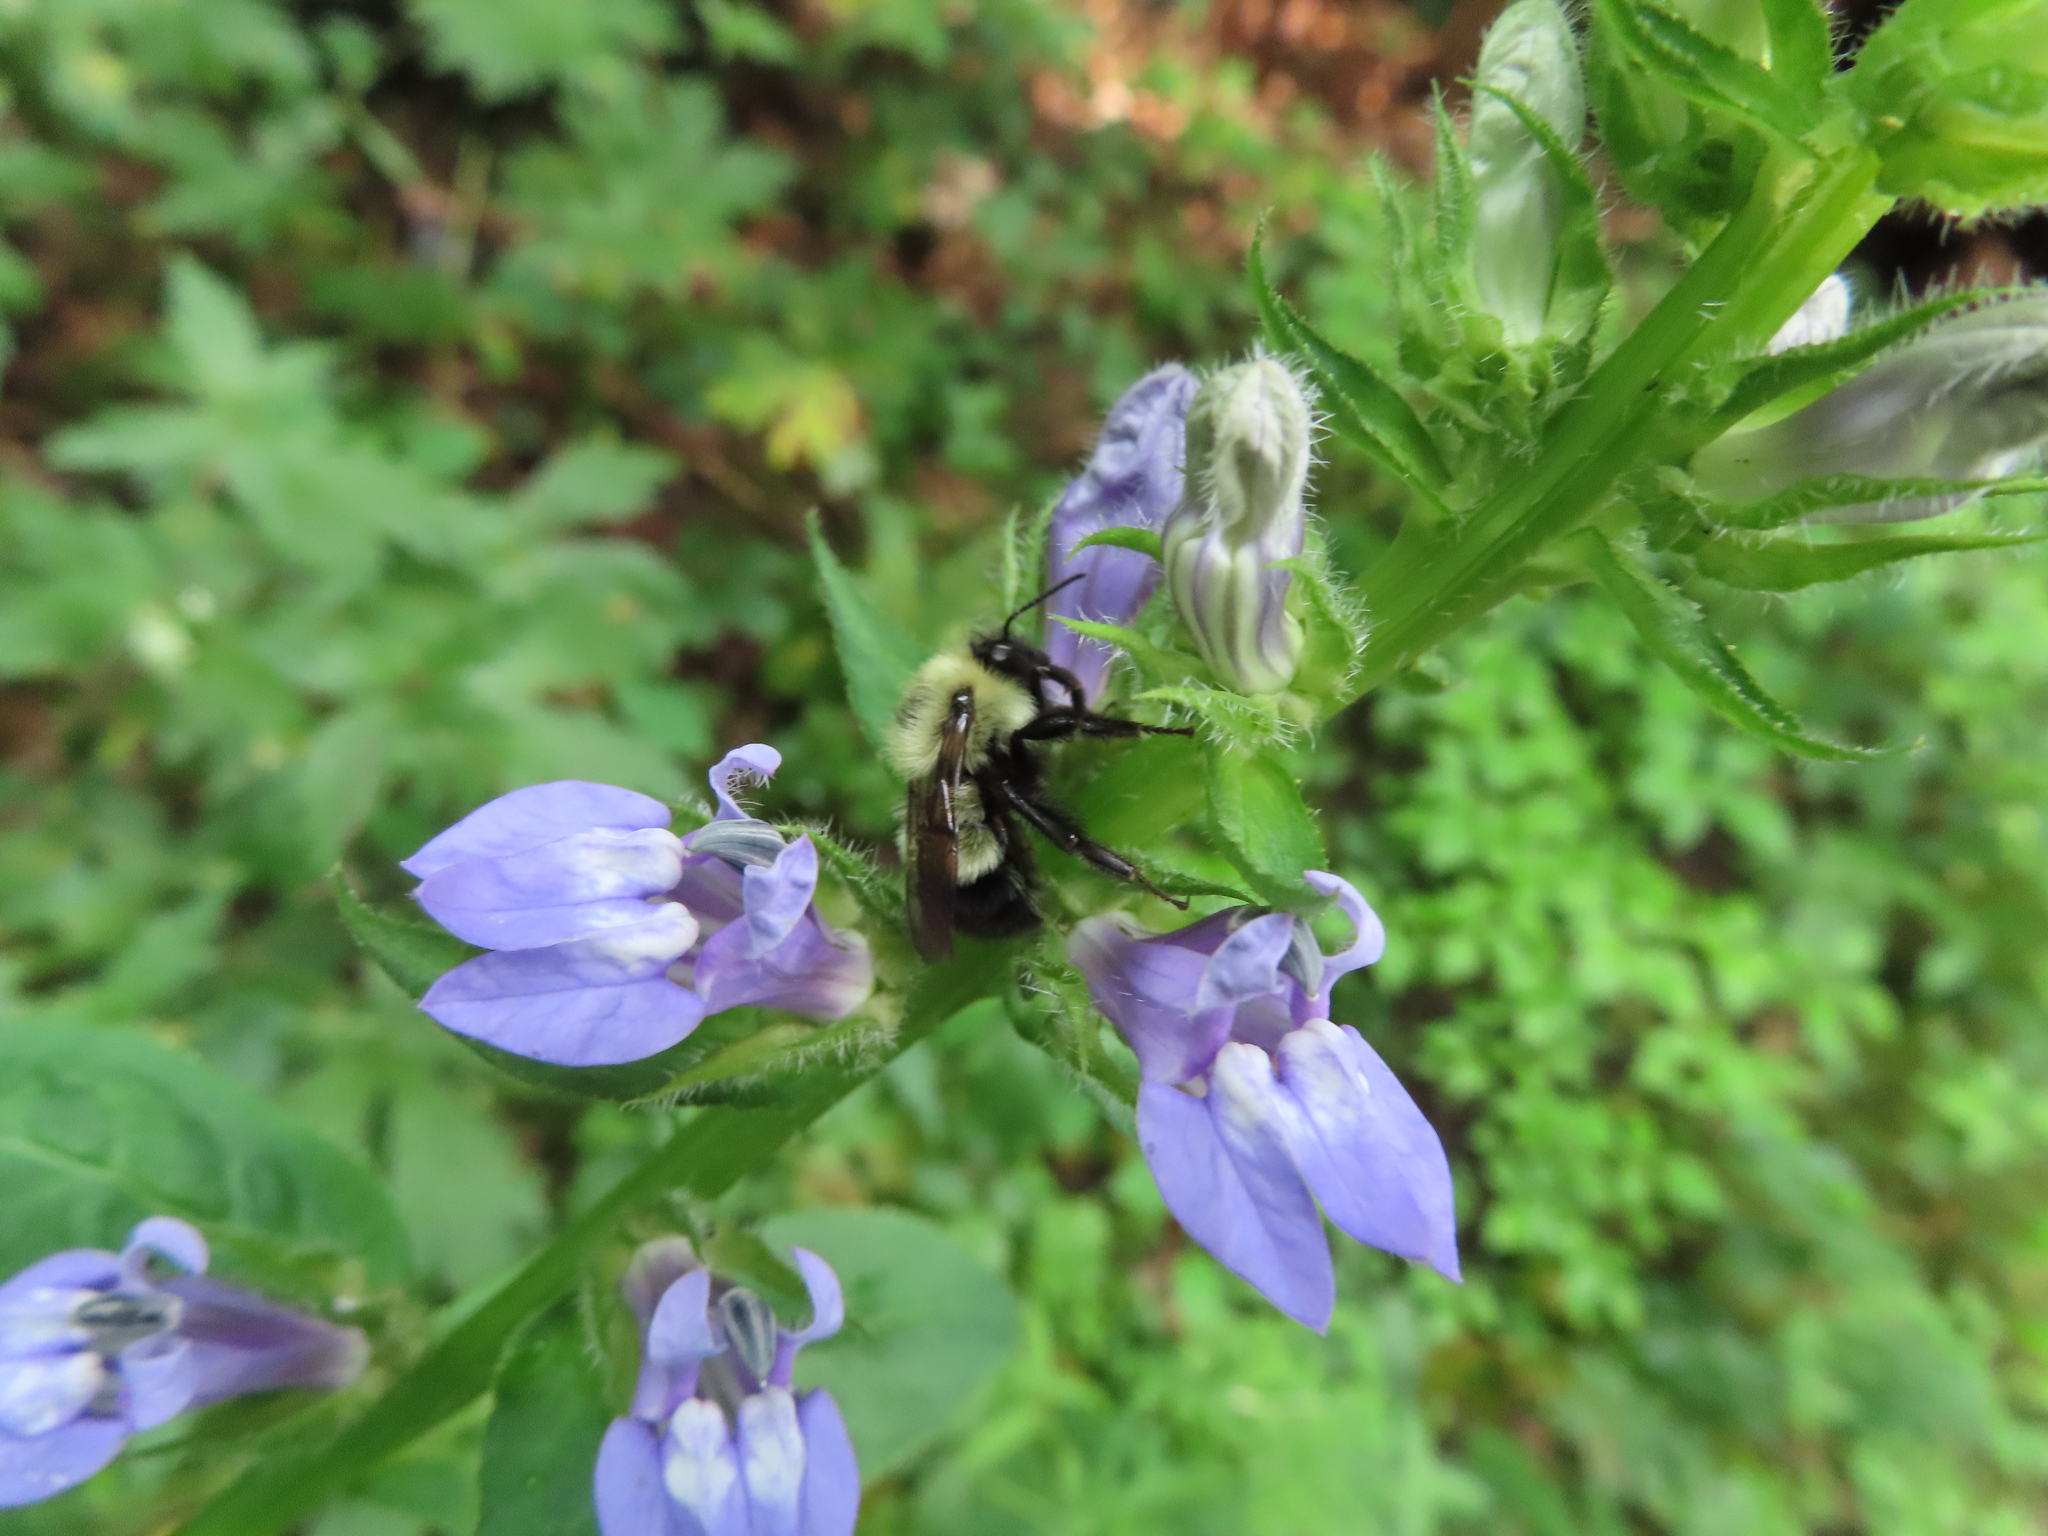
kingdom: Plantae
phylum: Tracheophyta
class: Magnoliopsida
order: Asterales
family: Campanulaceae
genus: Lobelia
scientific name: Lobelia siphilitica
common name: Great lobelia
